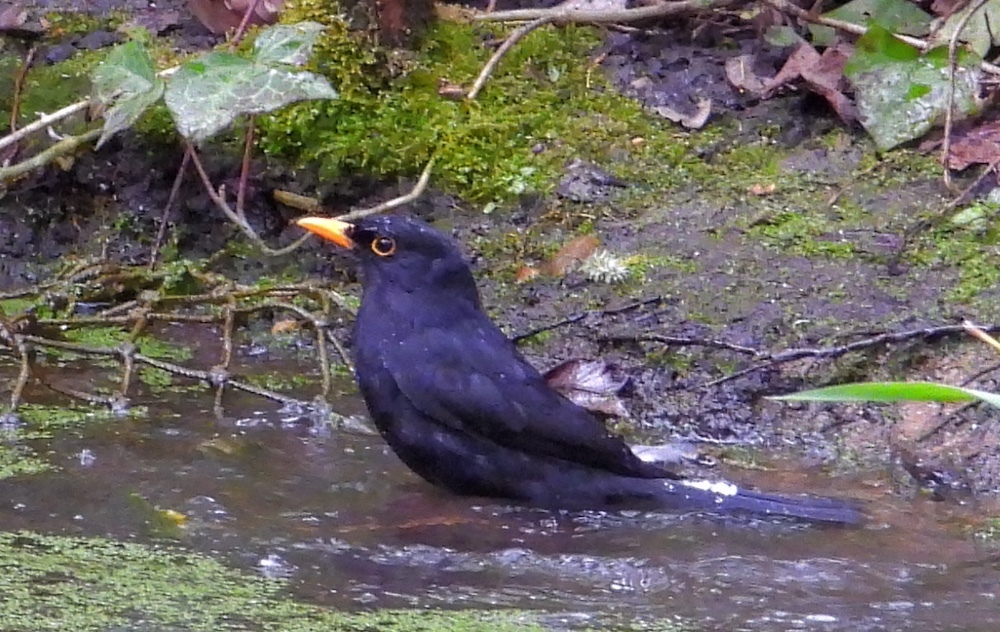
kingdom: Animalia
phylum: Chordata
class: Aves
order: Passeriformes
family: Turdidae
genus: Turdus
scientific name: Turdus merula
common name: Common blackbird
